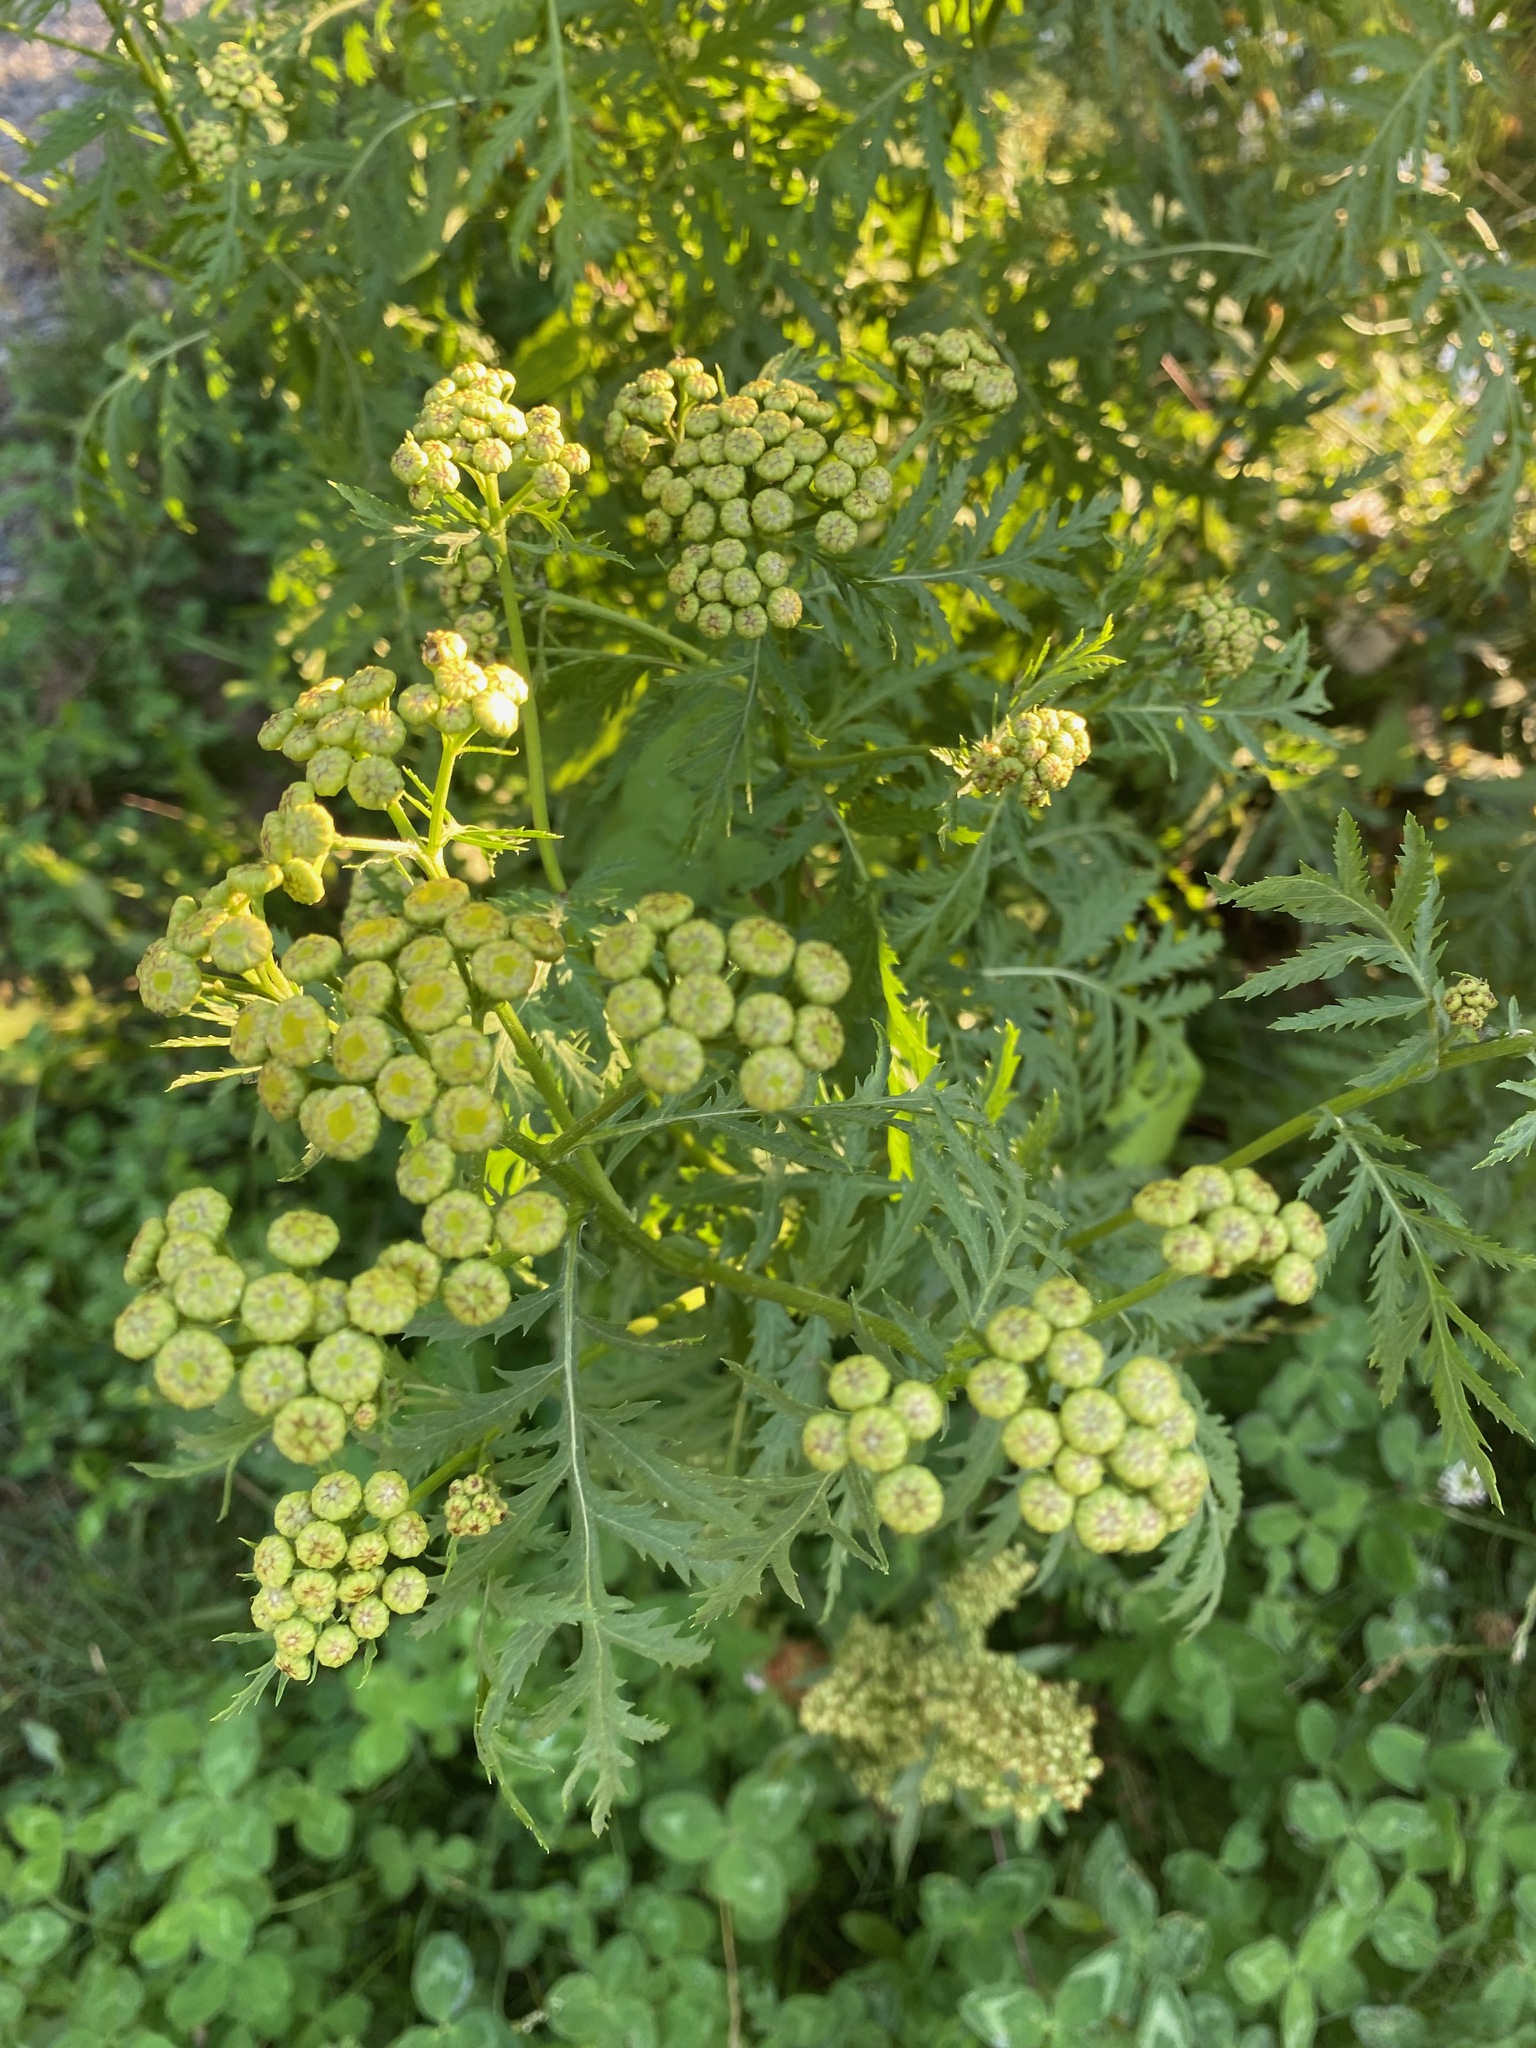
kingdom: Plantae
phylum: Tracheophyta
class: Magnoliopsida
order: Asterales
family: Asteraceae
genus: Tanacetum
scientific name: Tanacetum vulgare
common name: Common tansy
